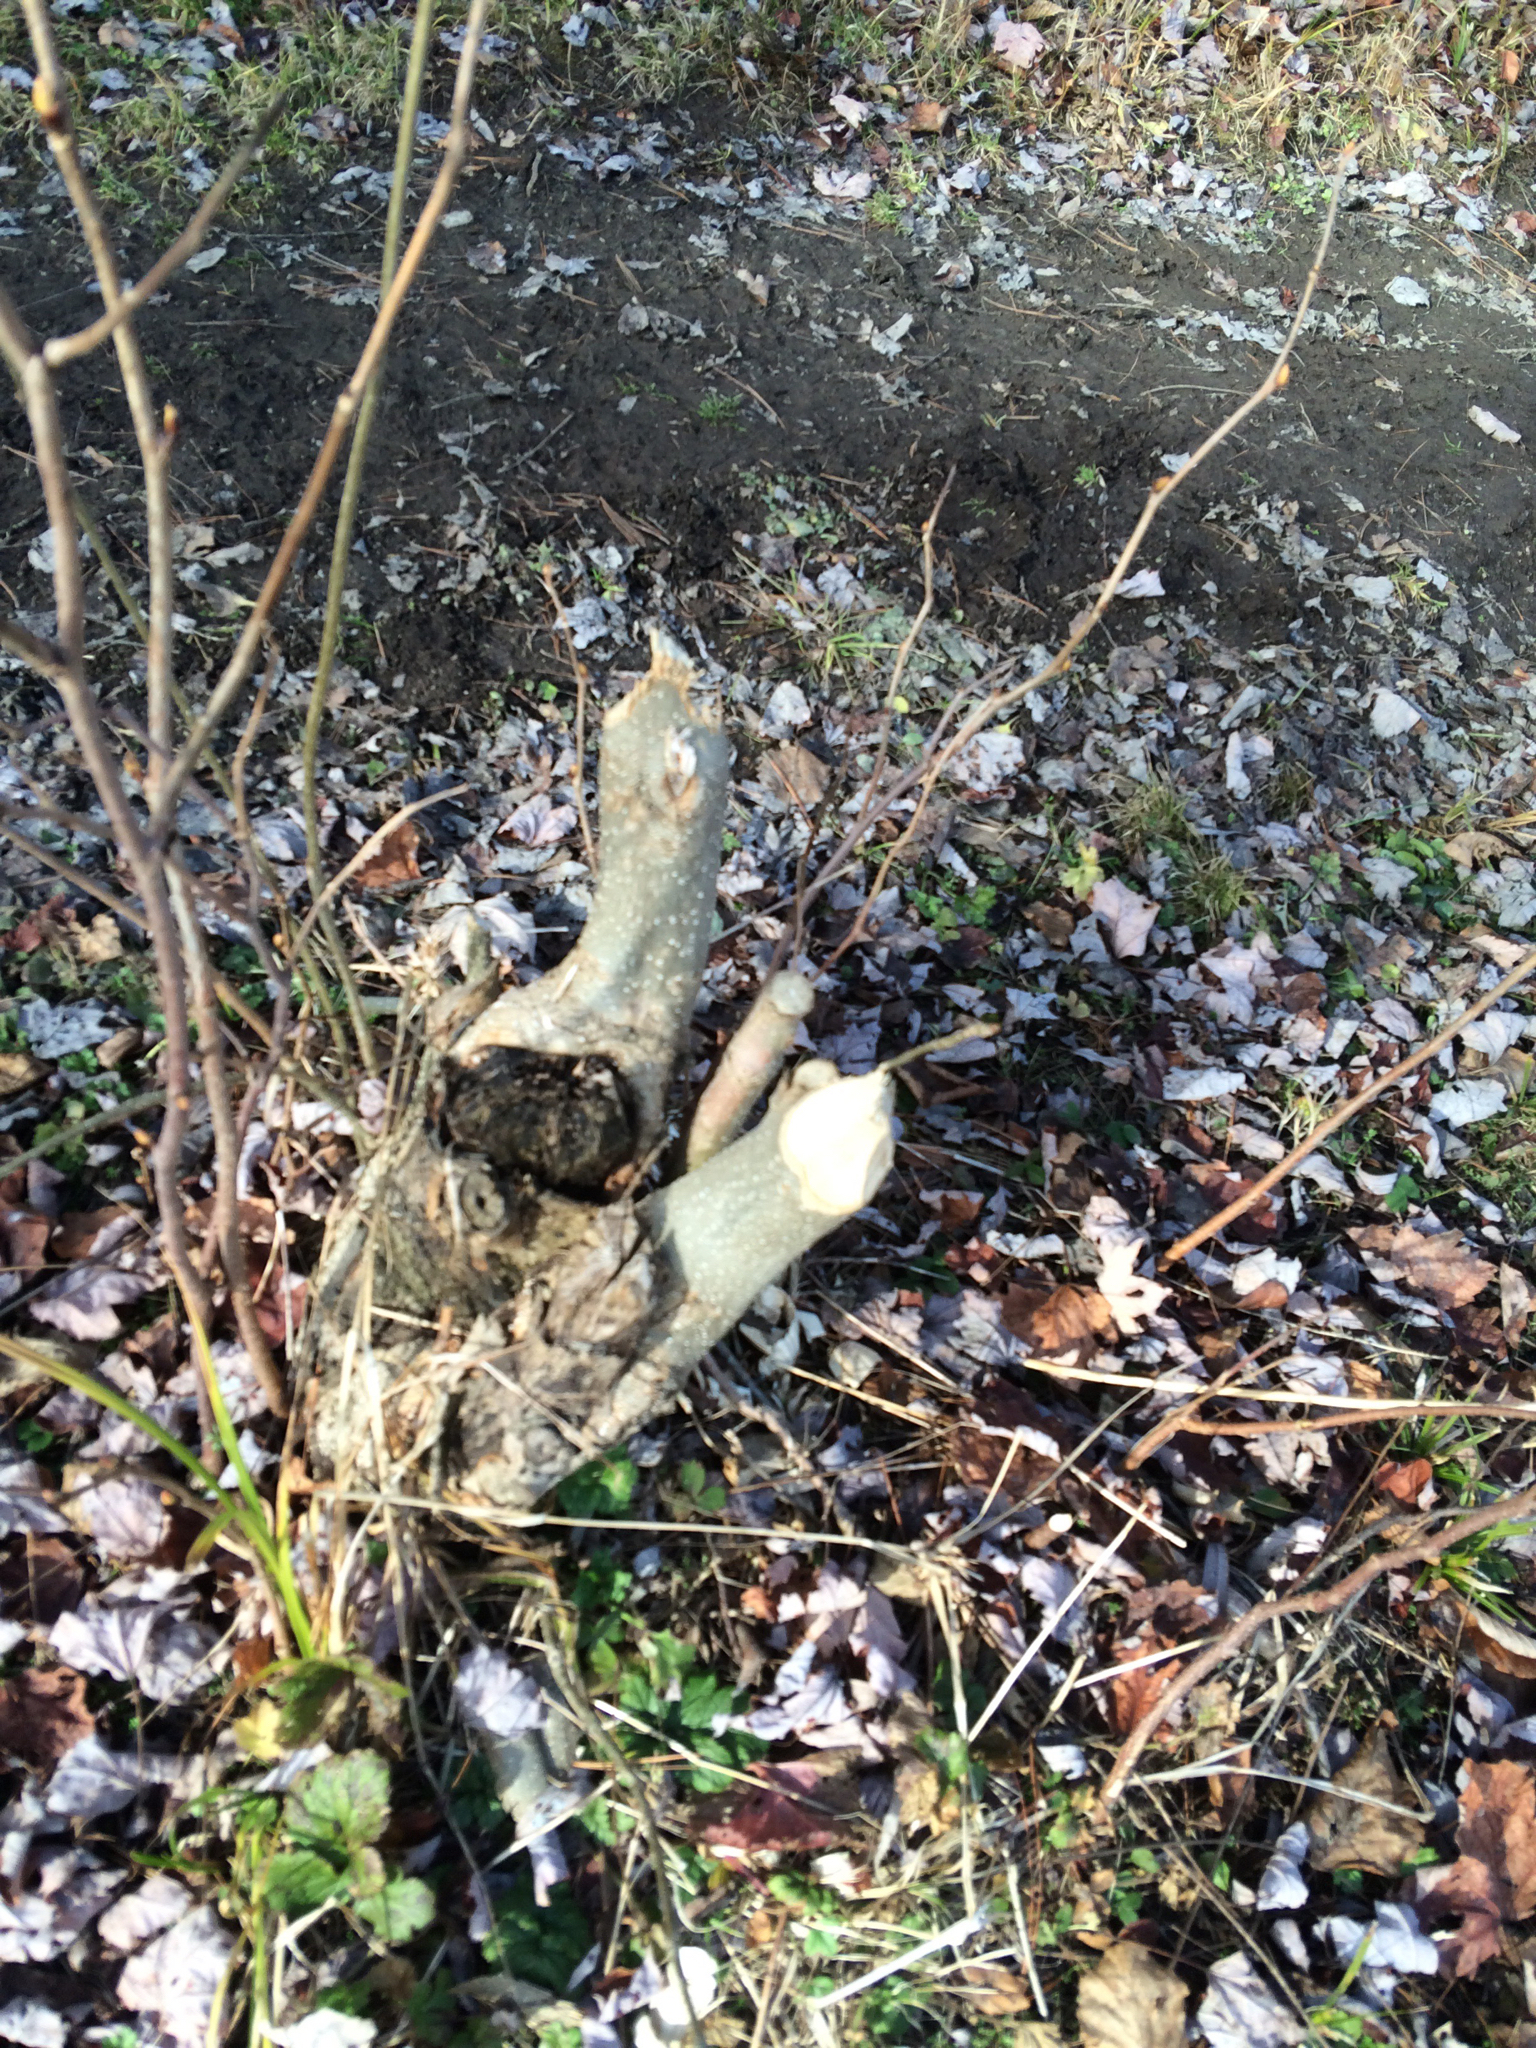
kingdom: Animalia
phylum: Chordata
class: Mammalia
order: Rodentia
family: Castoridae
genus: Castor
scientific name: Castor canadensis
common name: American beaver
